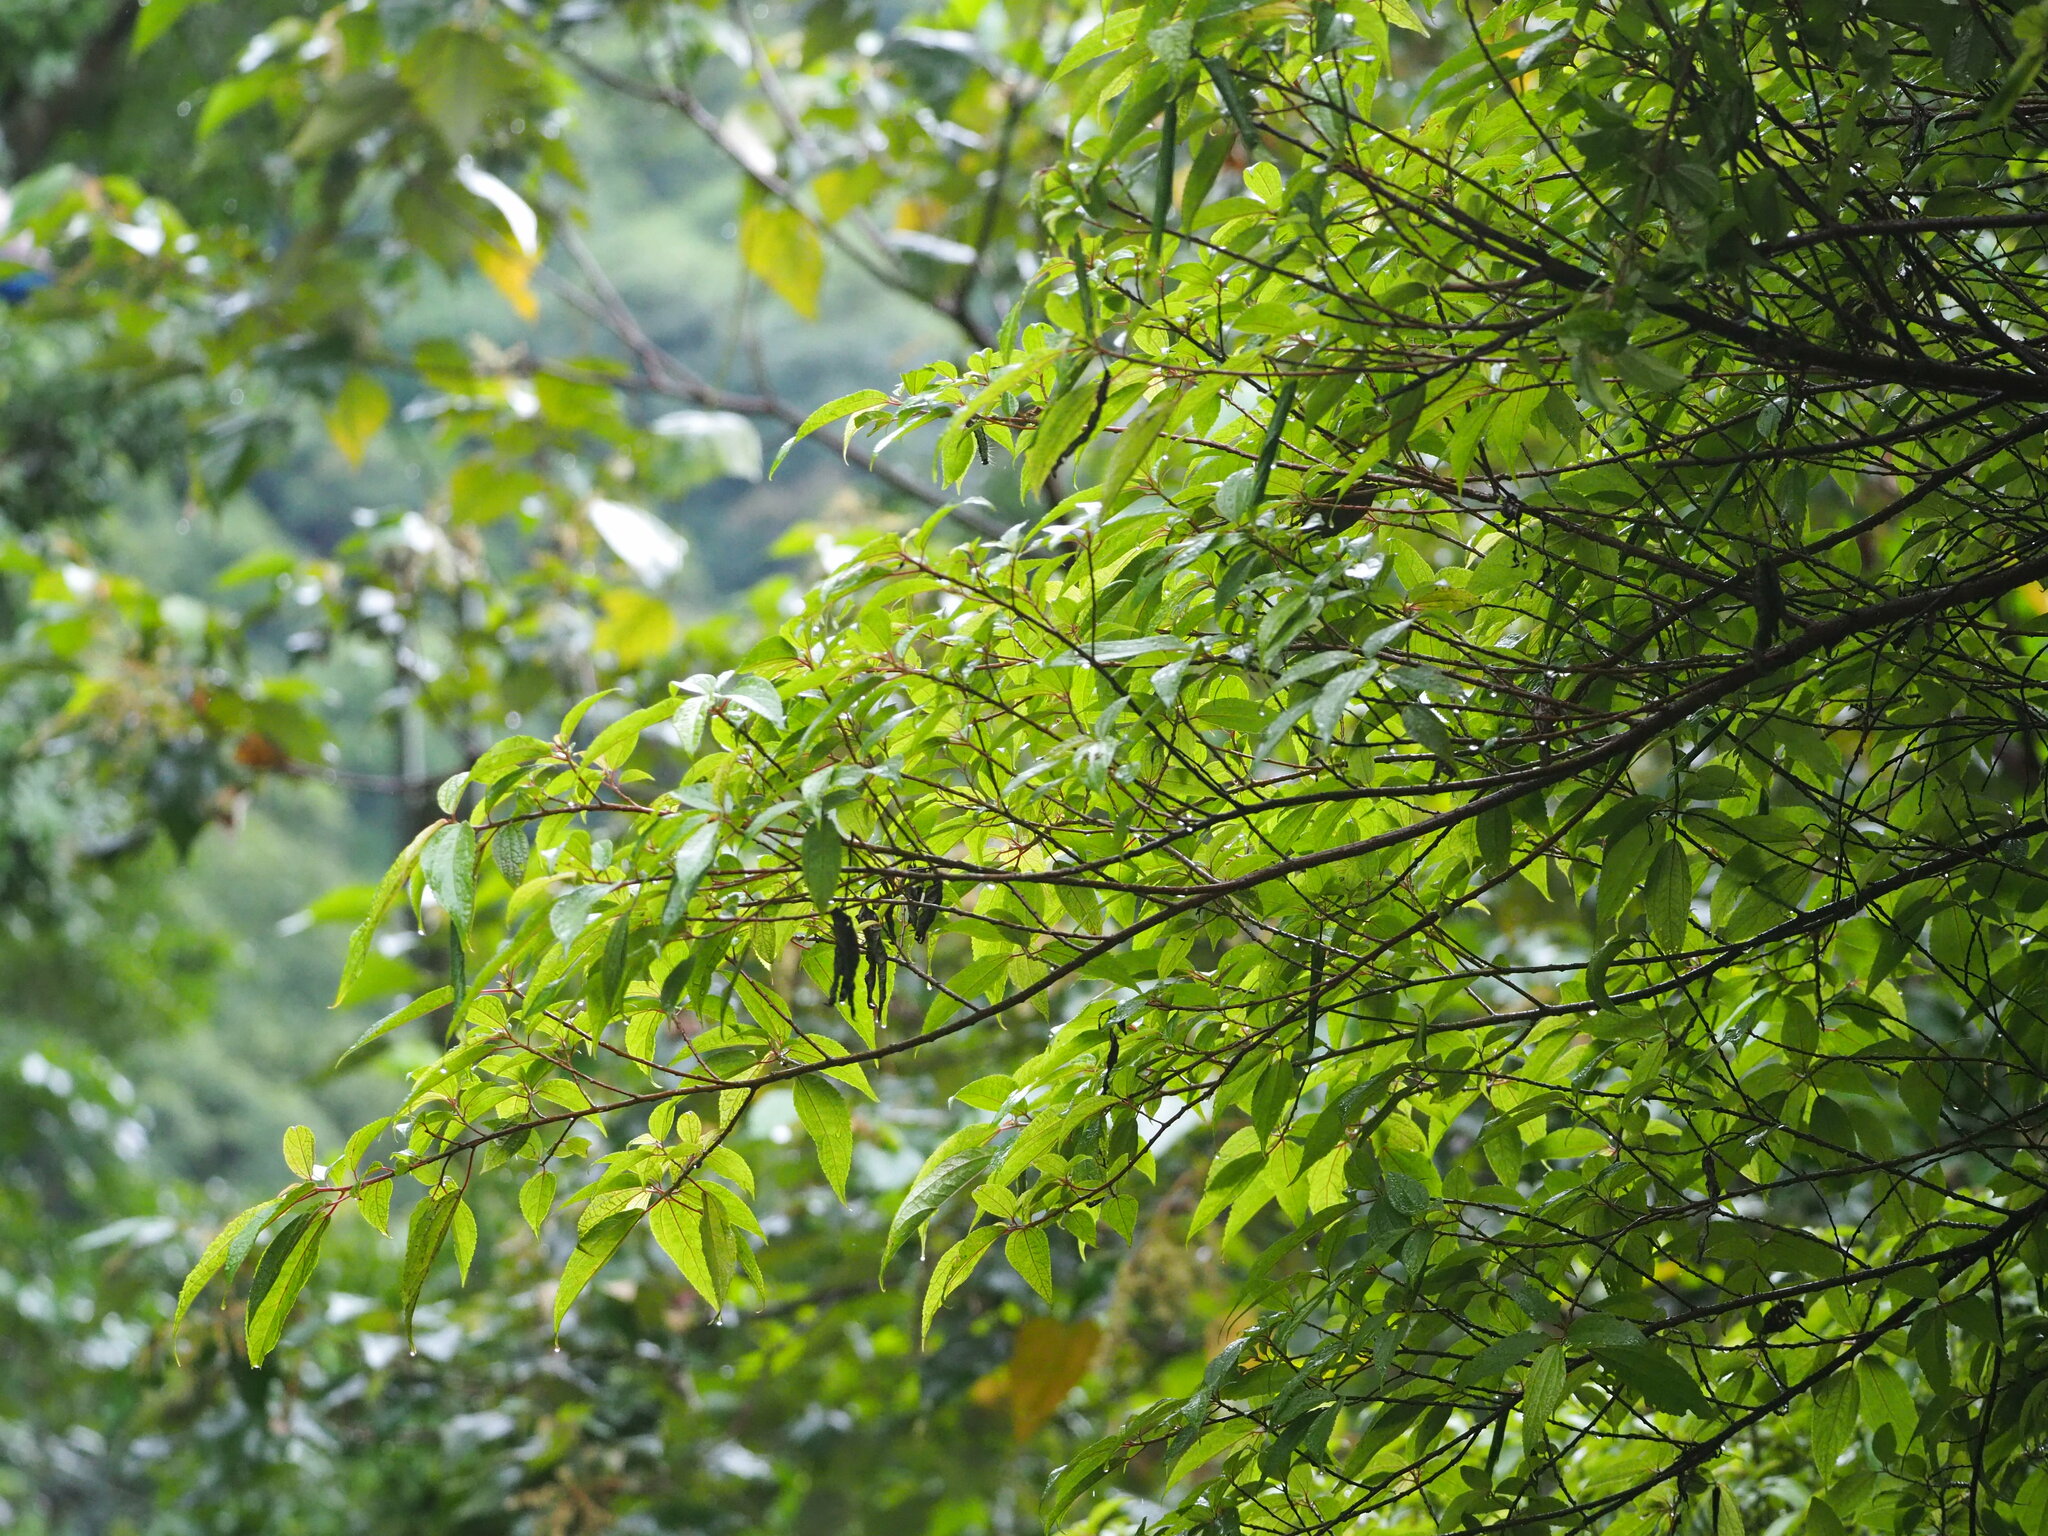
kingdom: Plantae
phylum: Tracheophyta
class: Magnoliopsida
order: Rosales
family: Urticaceae
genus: Oreocnide
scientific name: Oreocnide pedunculata
